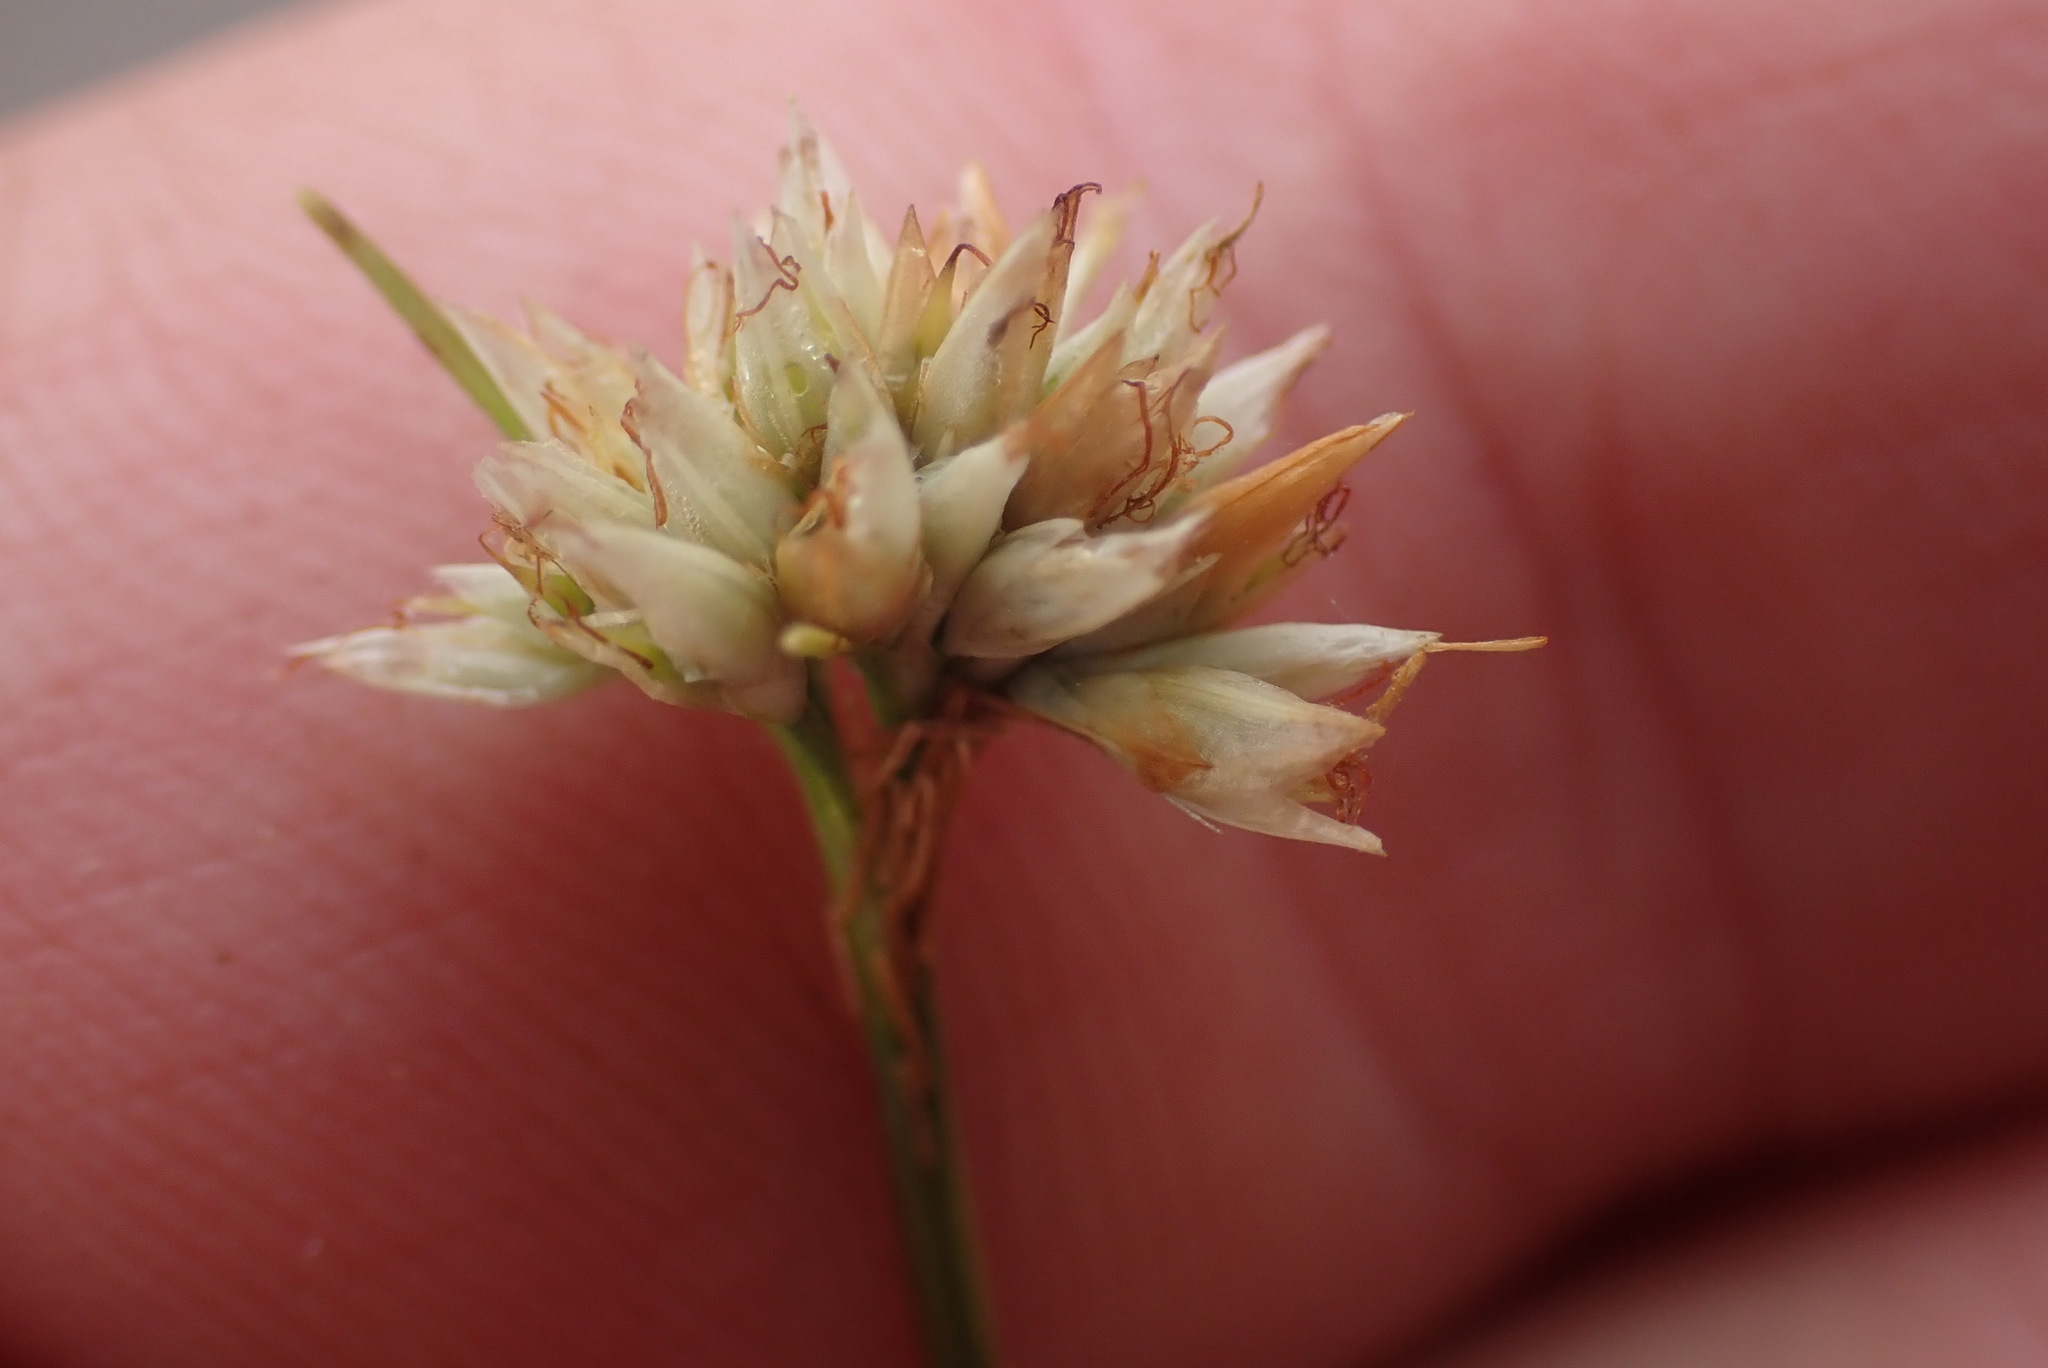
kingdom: Plantae
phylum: Tracheophyta
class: Liliopsida
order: Poales
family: Cyperaceae
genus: Rhynchospora
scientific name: Rhynchospora alba
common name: White beak-sedge
